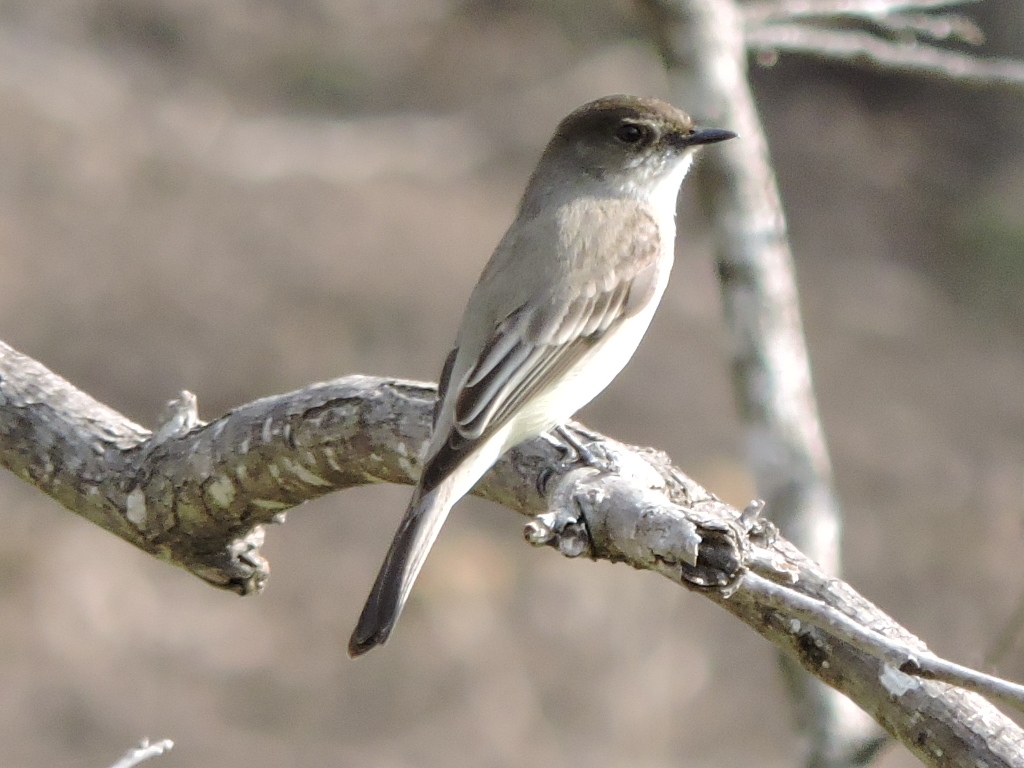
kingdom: Animalia
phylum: Chordata
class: Aves
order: Passeriformes
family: Tyrannidae
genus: Sayornis
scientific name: Sayornis phoebe
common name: Eastern phoebe
